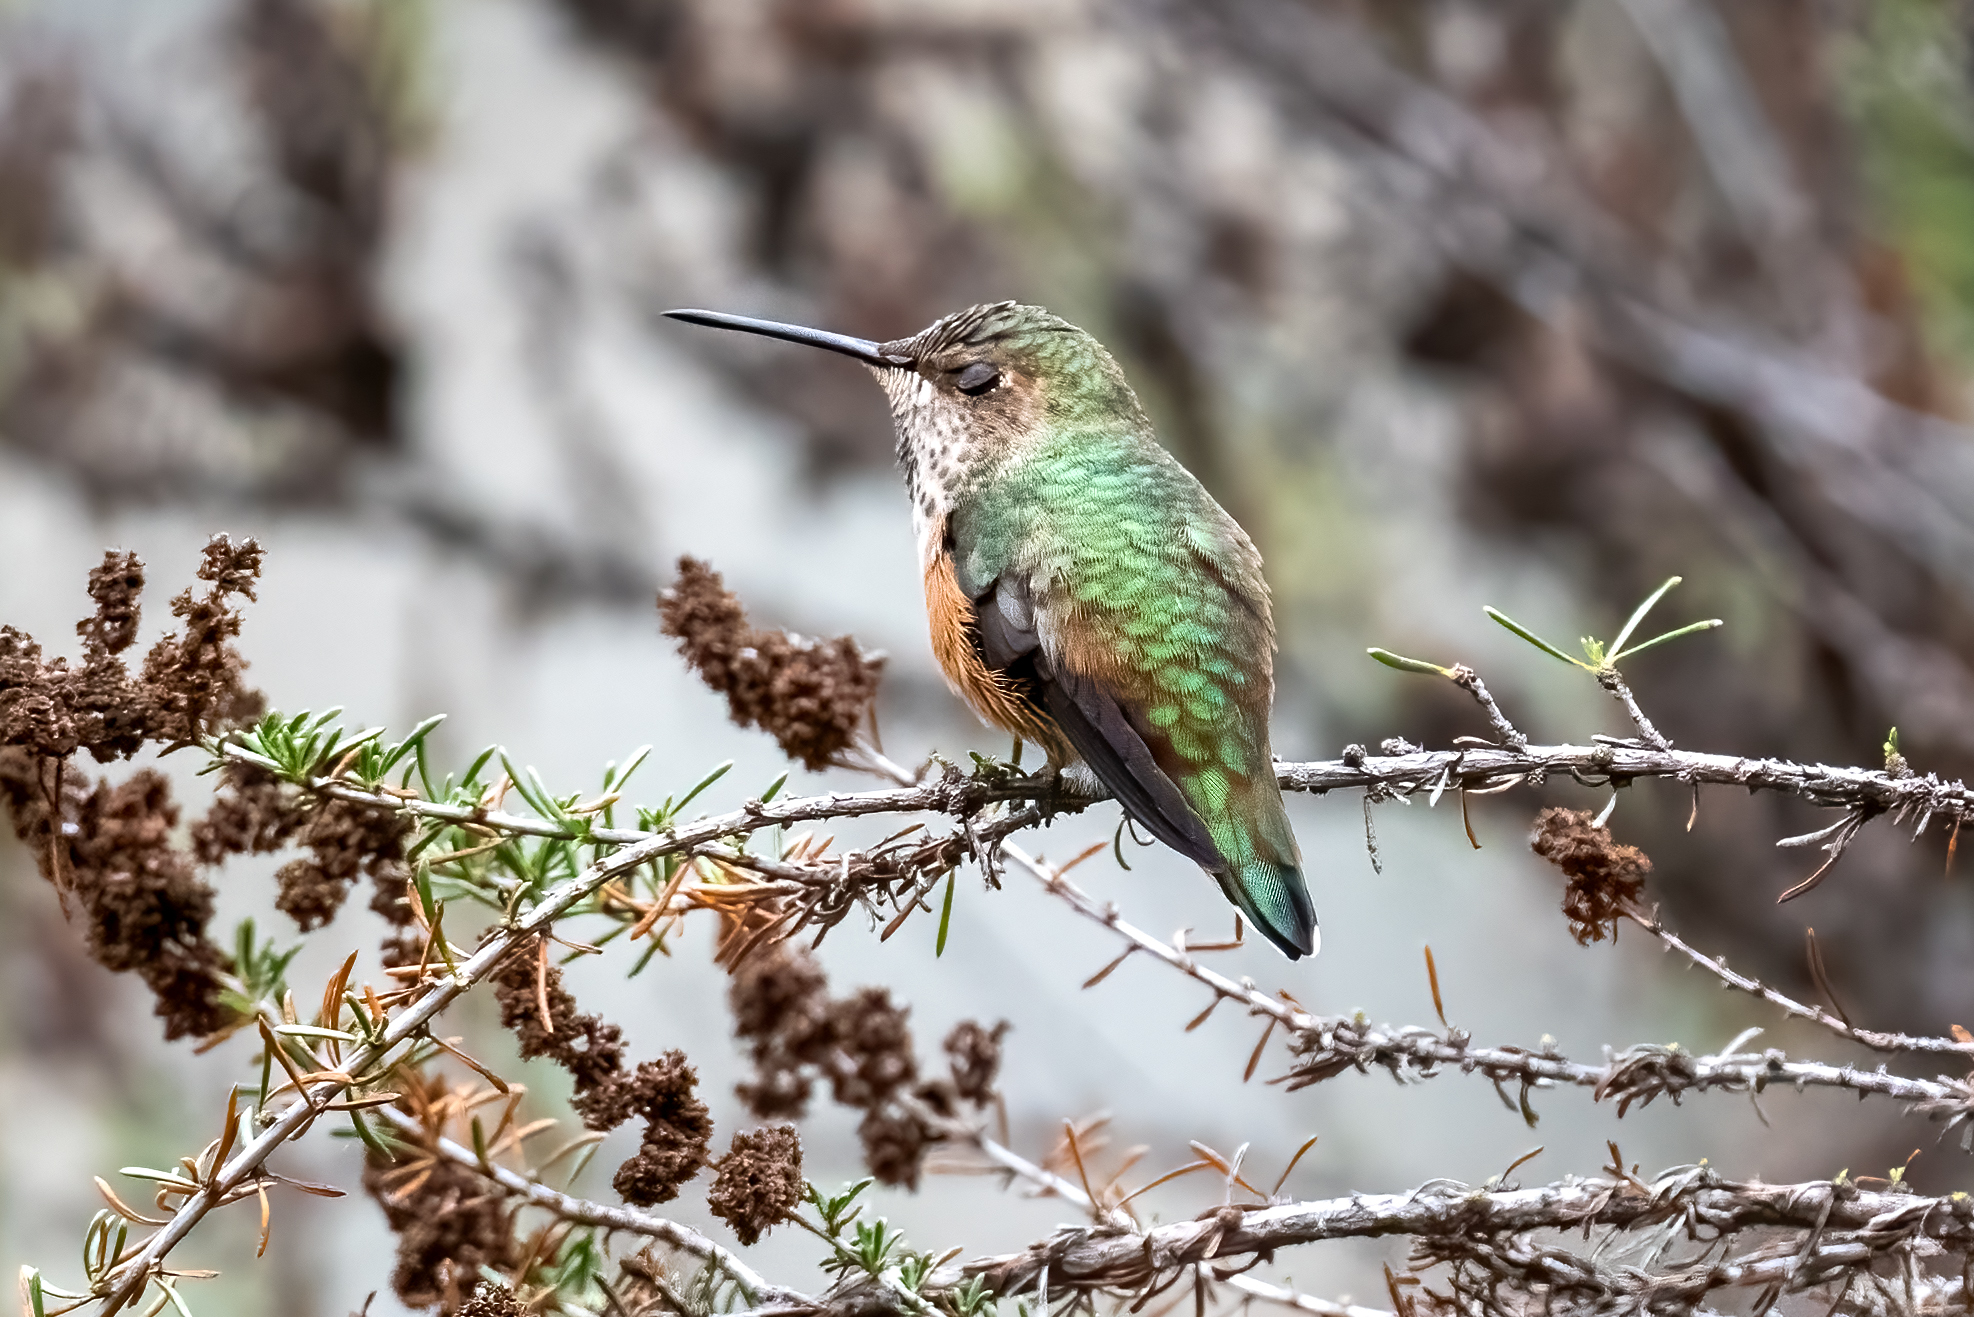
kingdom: Animalia
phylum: Chordata
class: Aves
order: Apodiformes
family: Trochilidae
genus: Selasphorus
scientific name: Selasphorus sasin
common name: Allen's hummingbird
